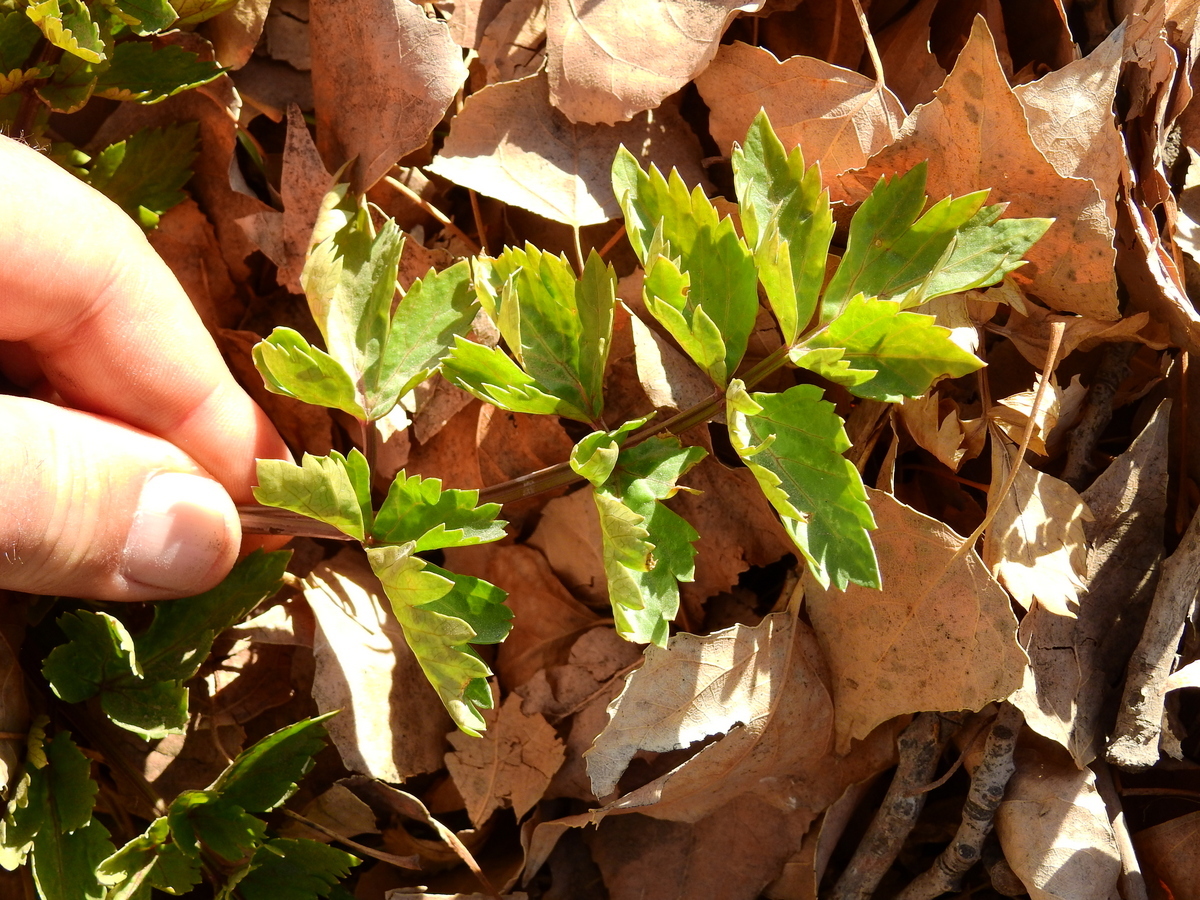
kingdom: Plantae
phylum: Tracheophyta
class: Magnoliopsida
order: Apiales
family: Apiaceae
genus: Apium
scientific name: Apium graveolens
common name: Wild celery
